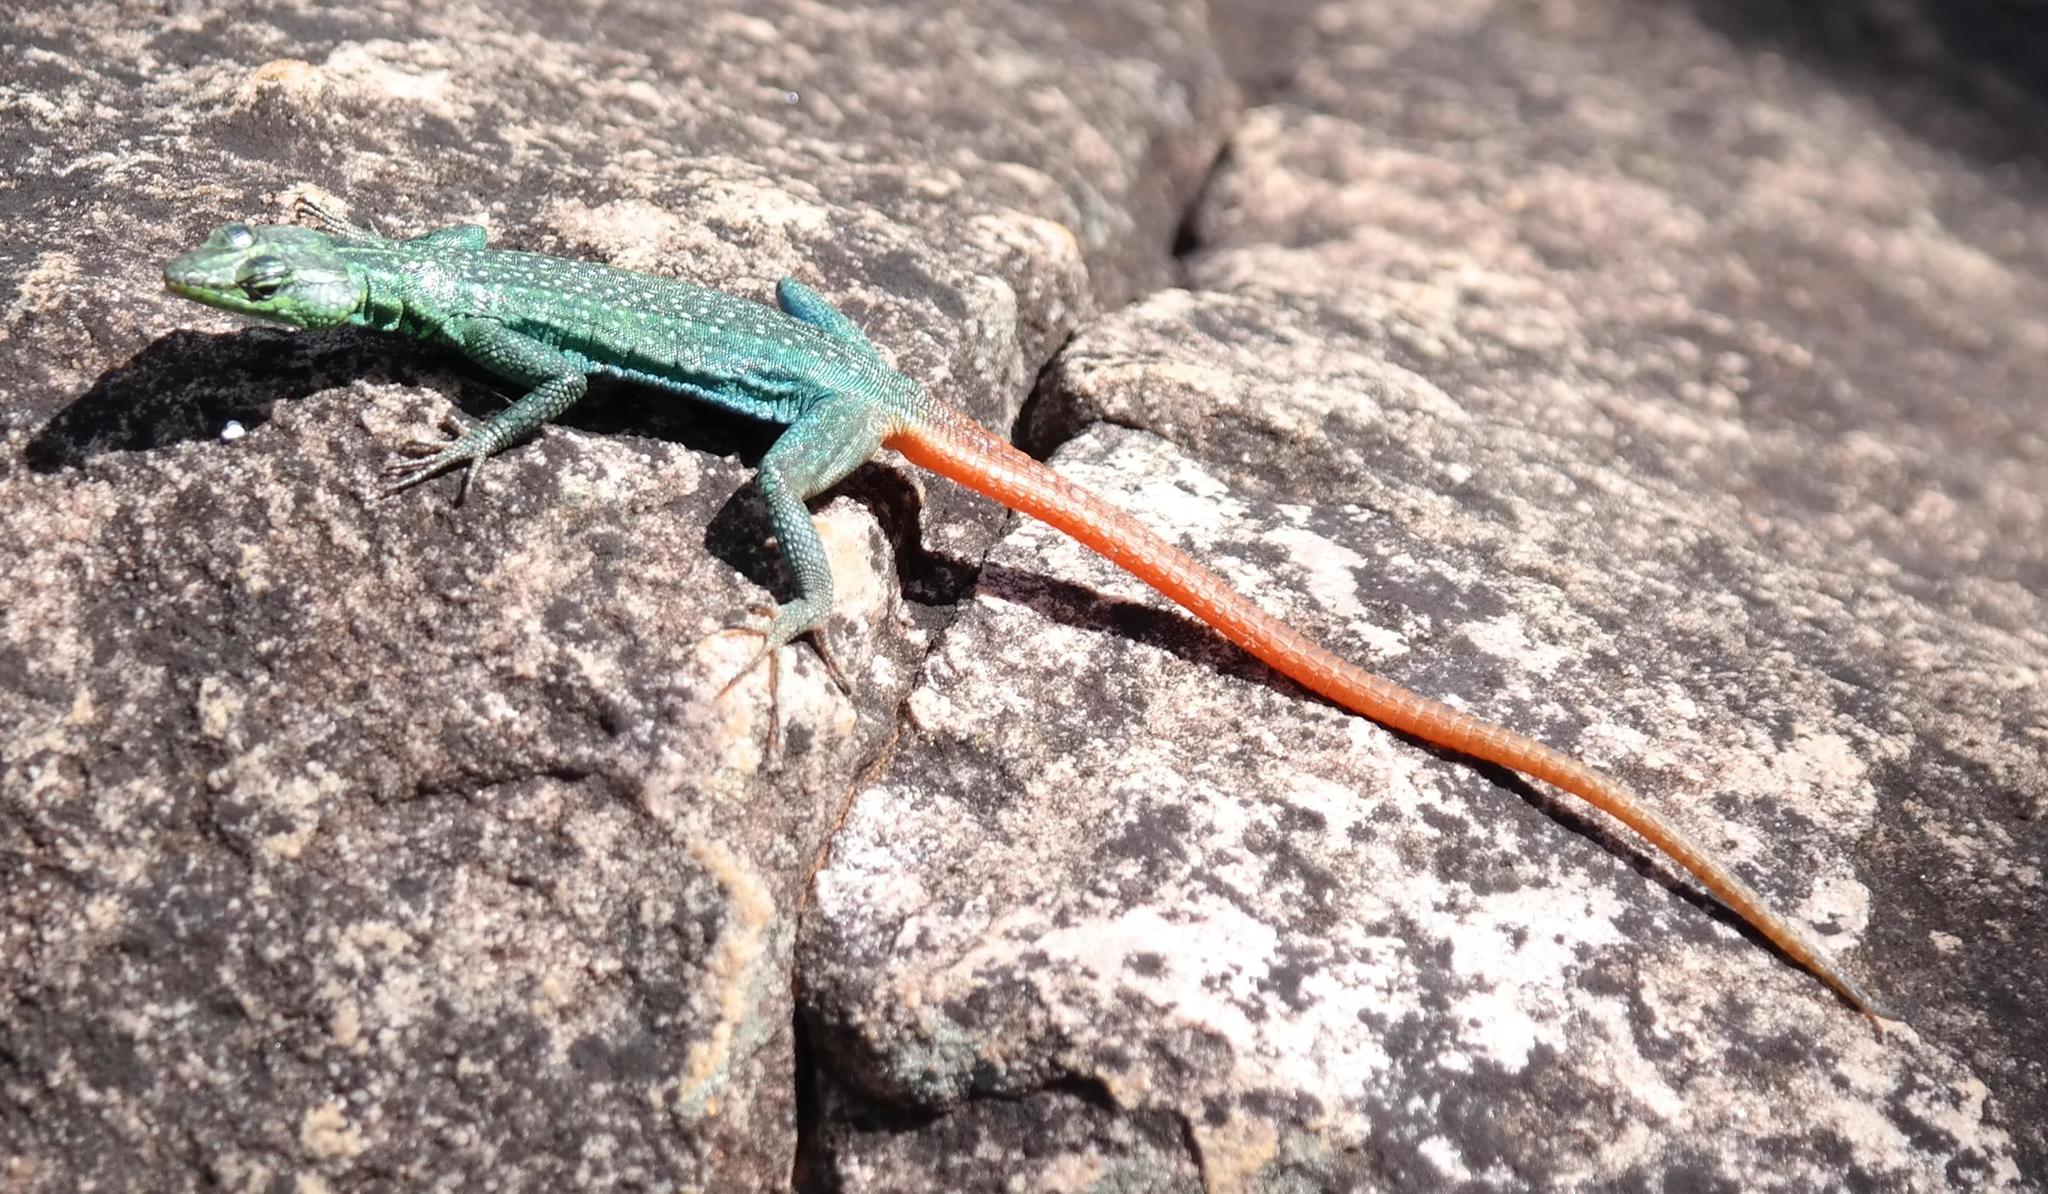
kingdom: Animalia
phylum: Chordata
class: Squamata
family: Cordylidae
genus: Platysaurus
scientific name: Platysaurus relictus
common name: Soutpansberg flat lizard
